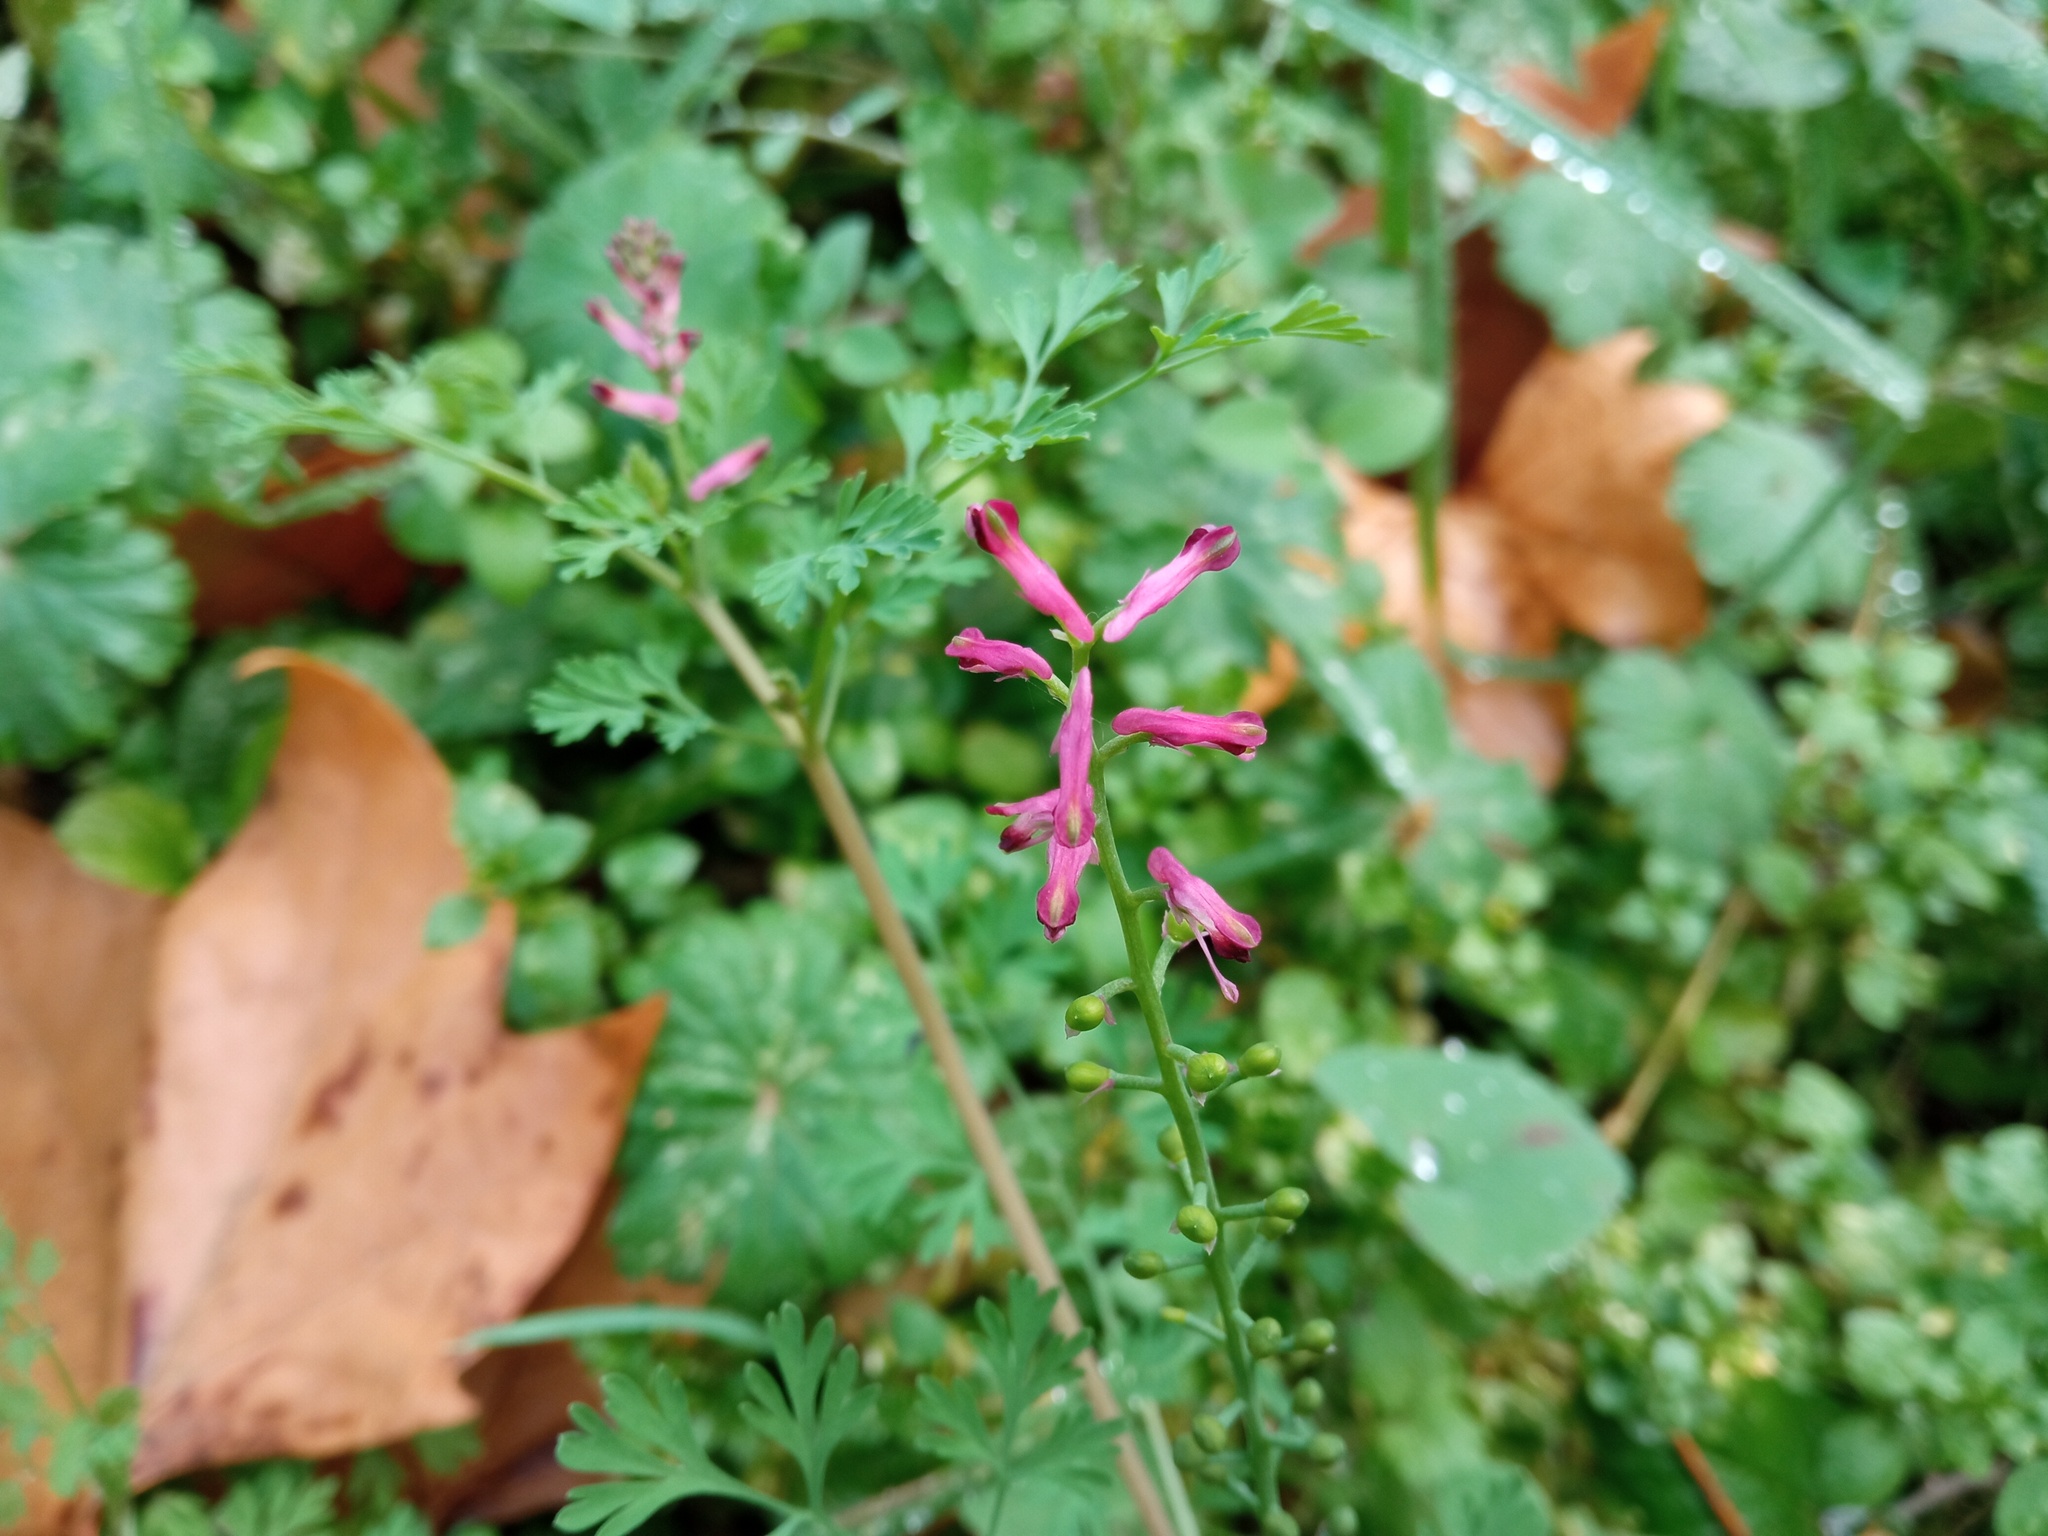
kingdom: Plantae
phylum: Tracheophyta
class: Magnoliopsida
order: Ranunculales
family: Papaveraceae
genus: Fumaria
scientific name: Fumaria officinalis
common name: Common fumitory
